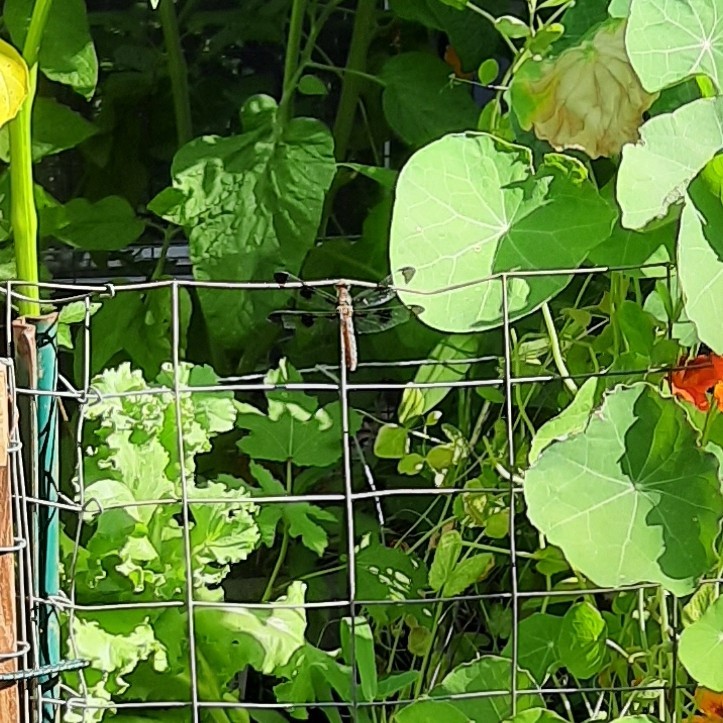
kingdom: Animalia
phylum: Arthropoda
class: Insecta
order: Odonata
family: Libellulidae
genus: Plathemis
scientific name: Plathemis lydia
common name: Common whitetail
